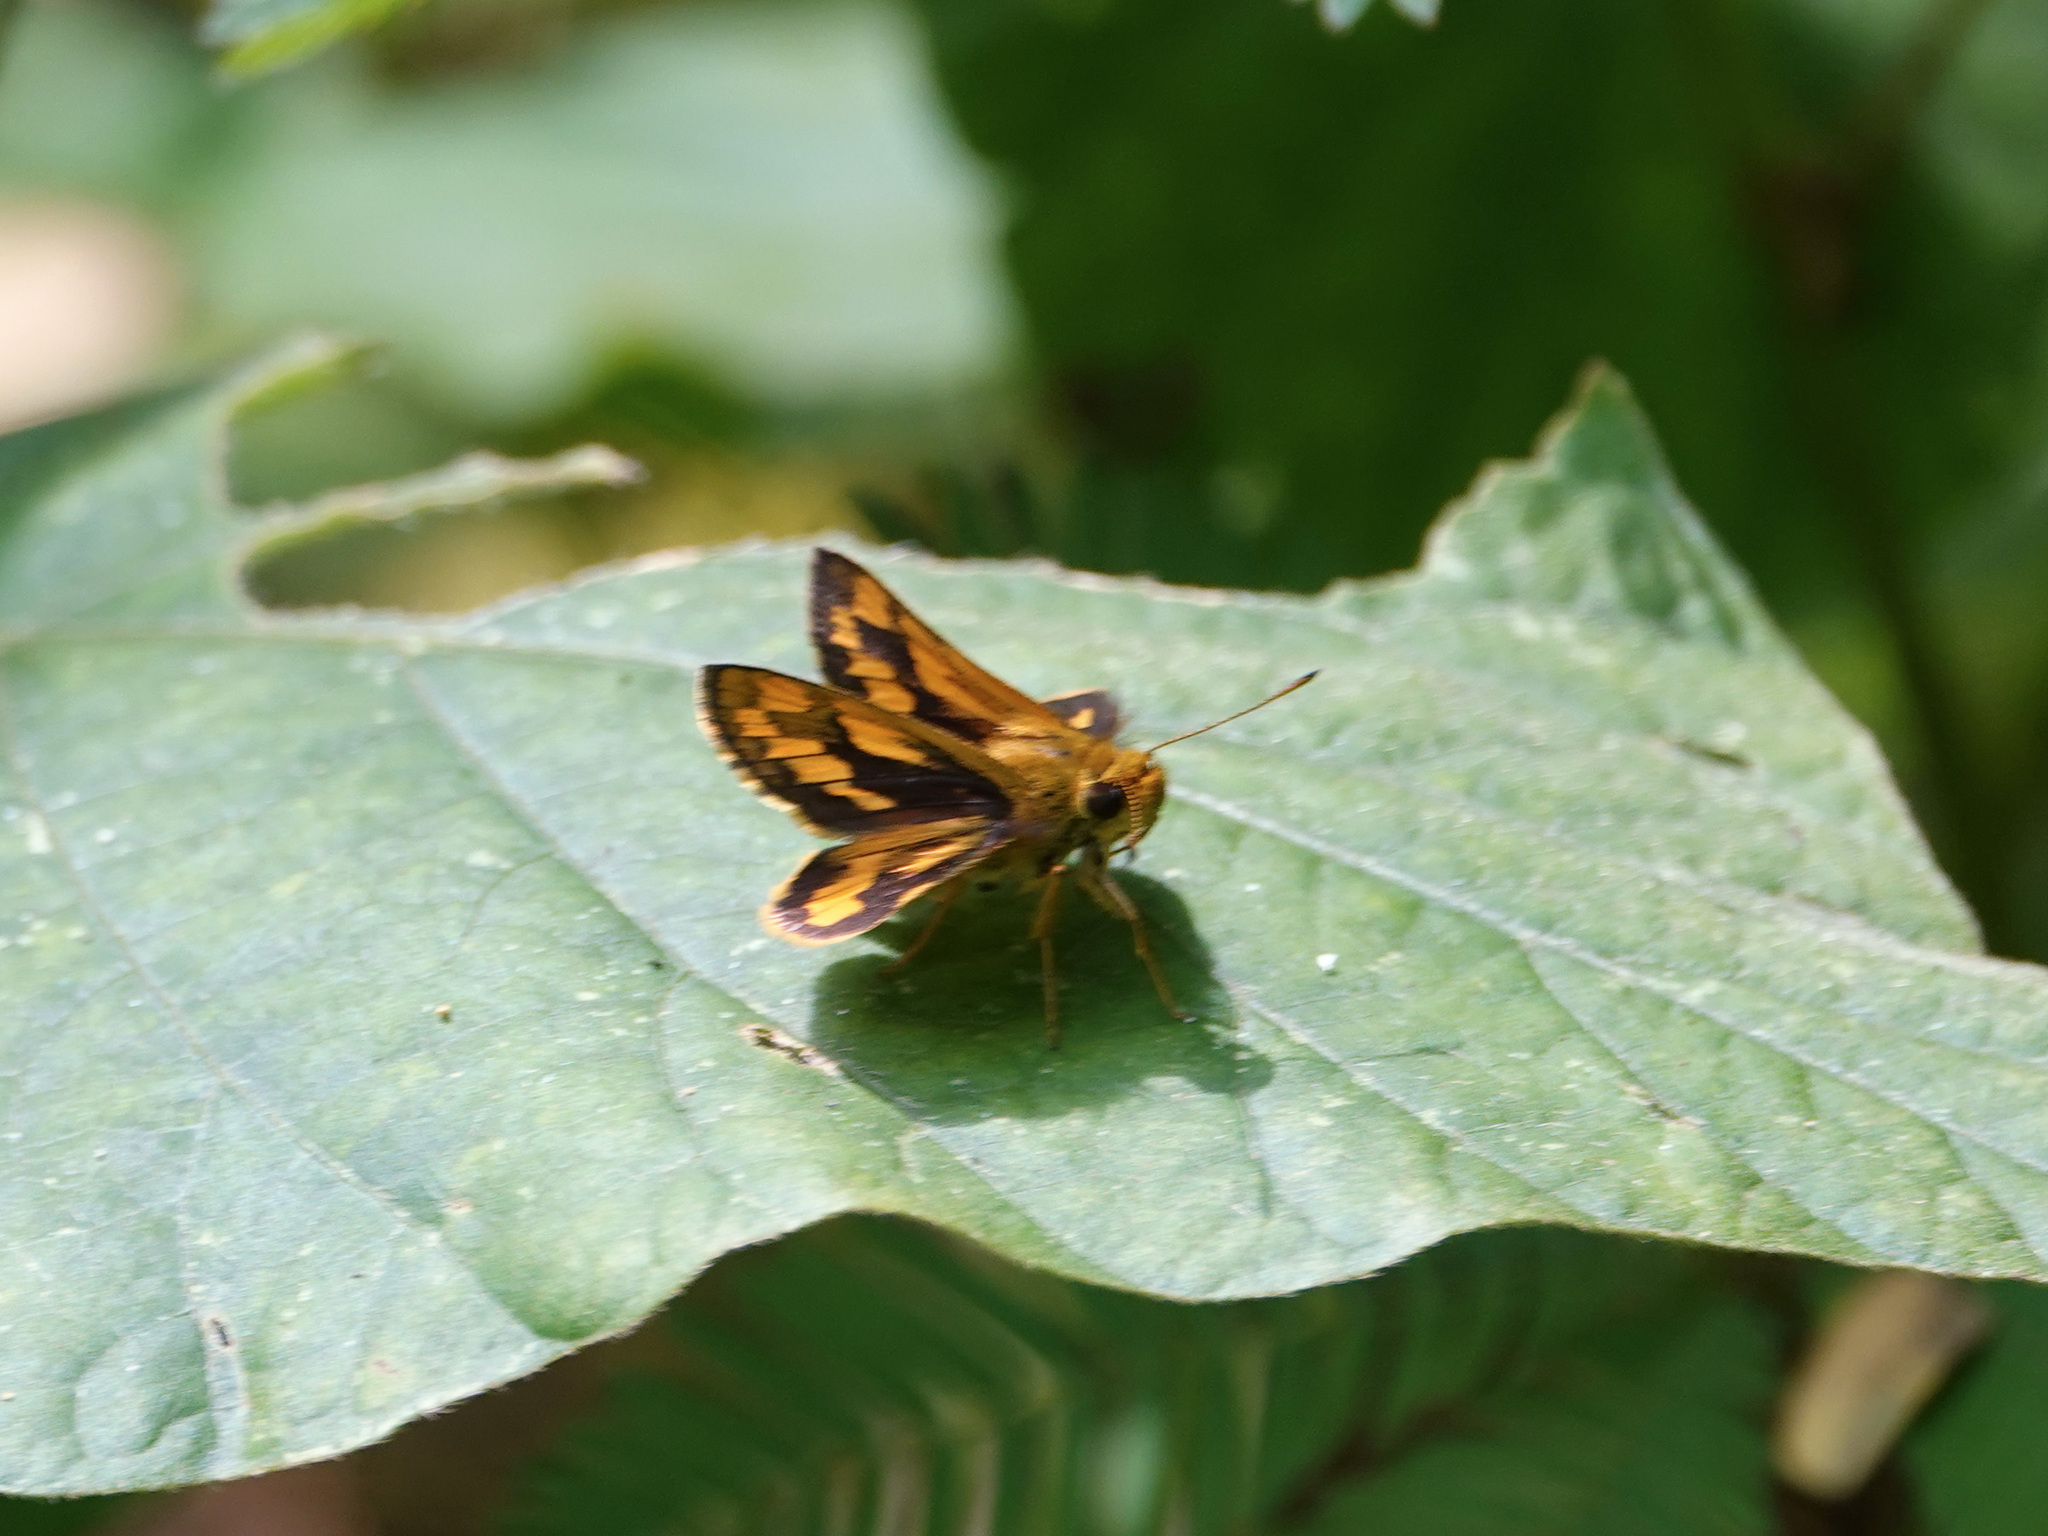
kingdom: Animalia
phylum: Arthropoda
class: Insecta
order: Lepidoptera
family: Hesperiidae
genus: Potanthus
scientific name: Potanthus omaha
